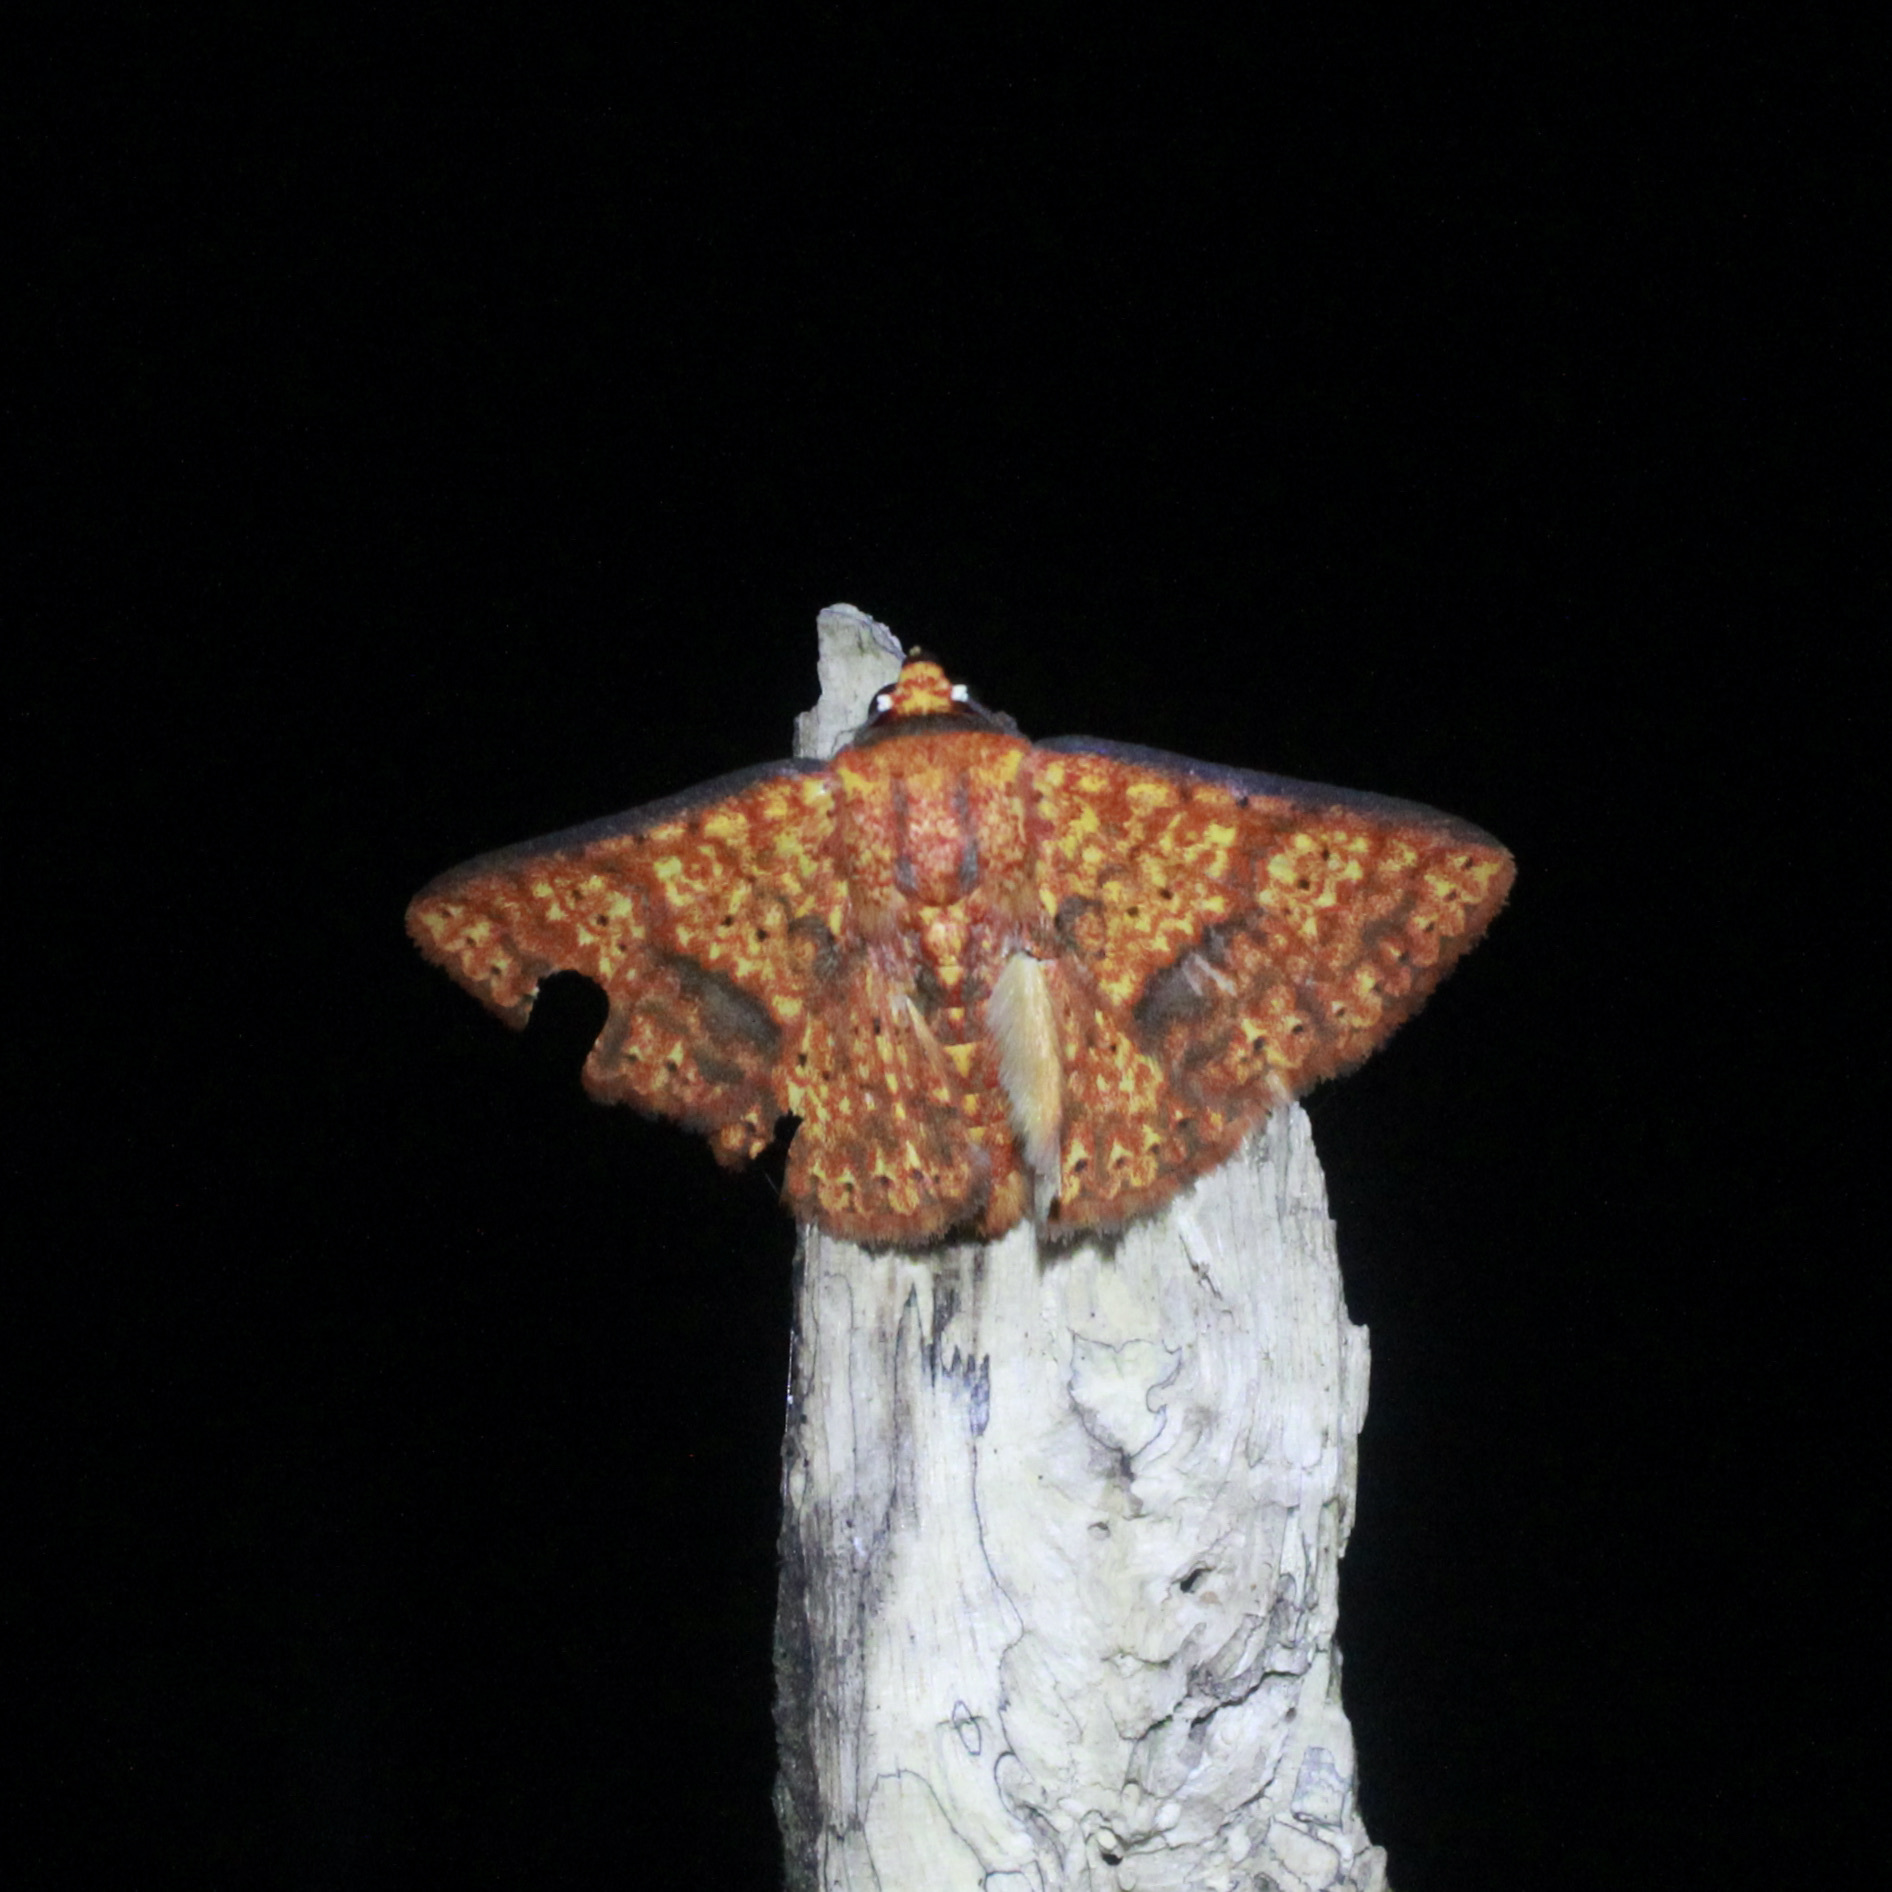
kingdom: Animalia
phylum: Arthropoda
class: Insecta
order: Lepidoptera
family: Erebidae
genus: Antiblemma
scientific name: Antiblemma lothos
